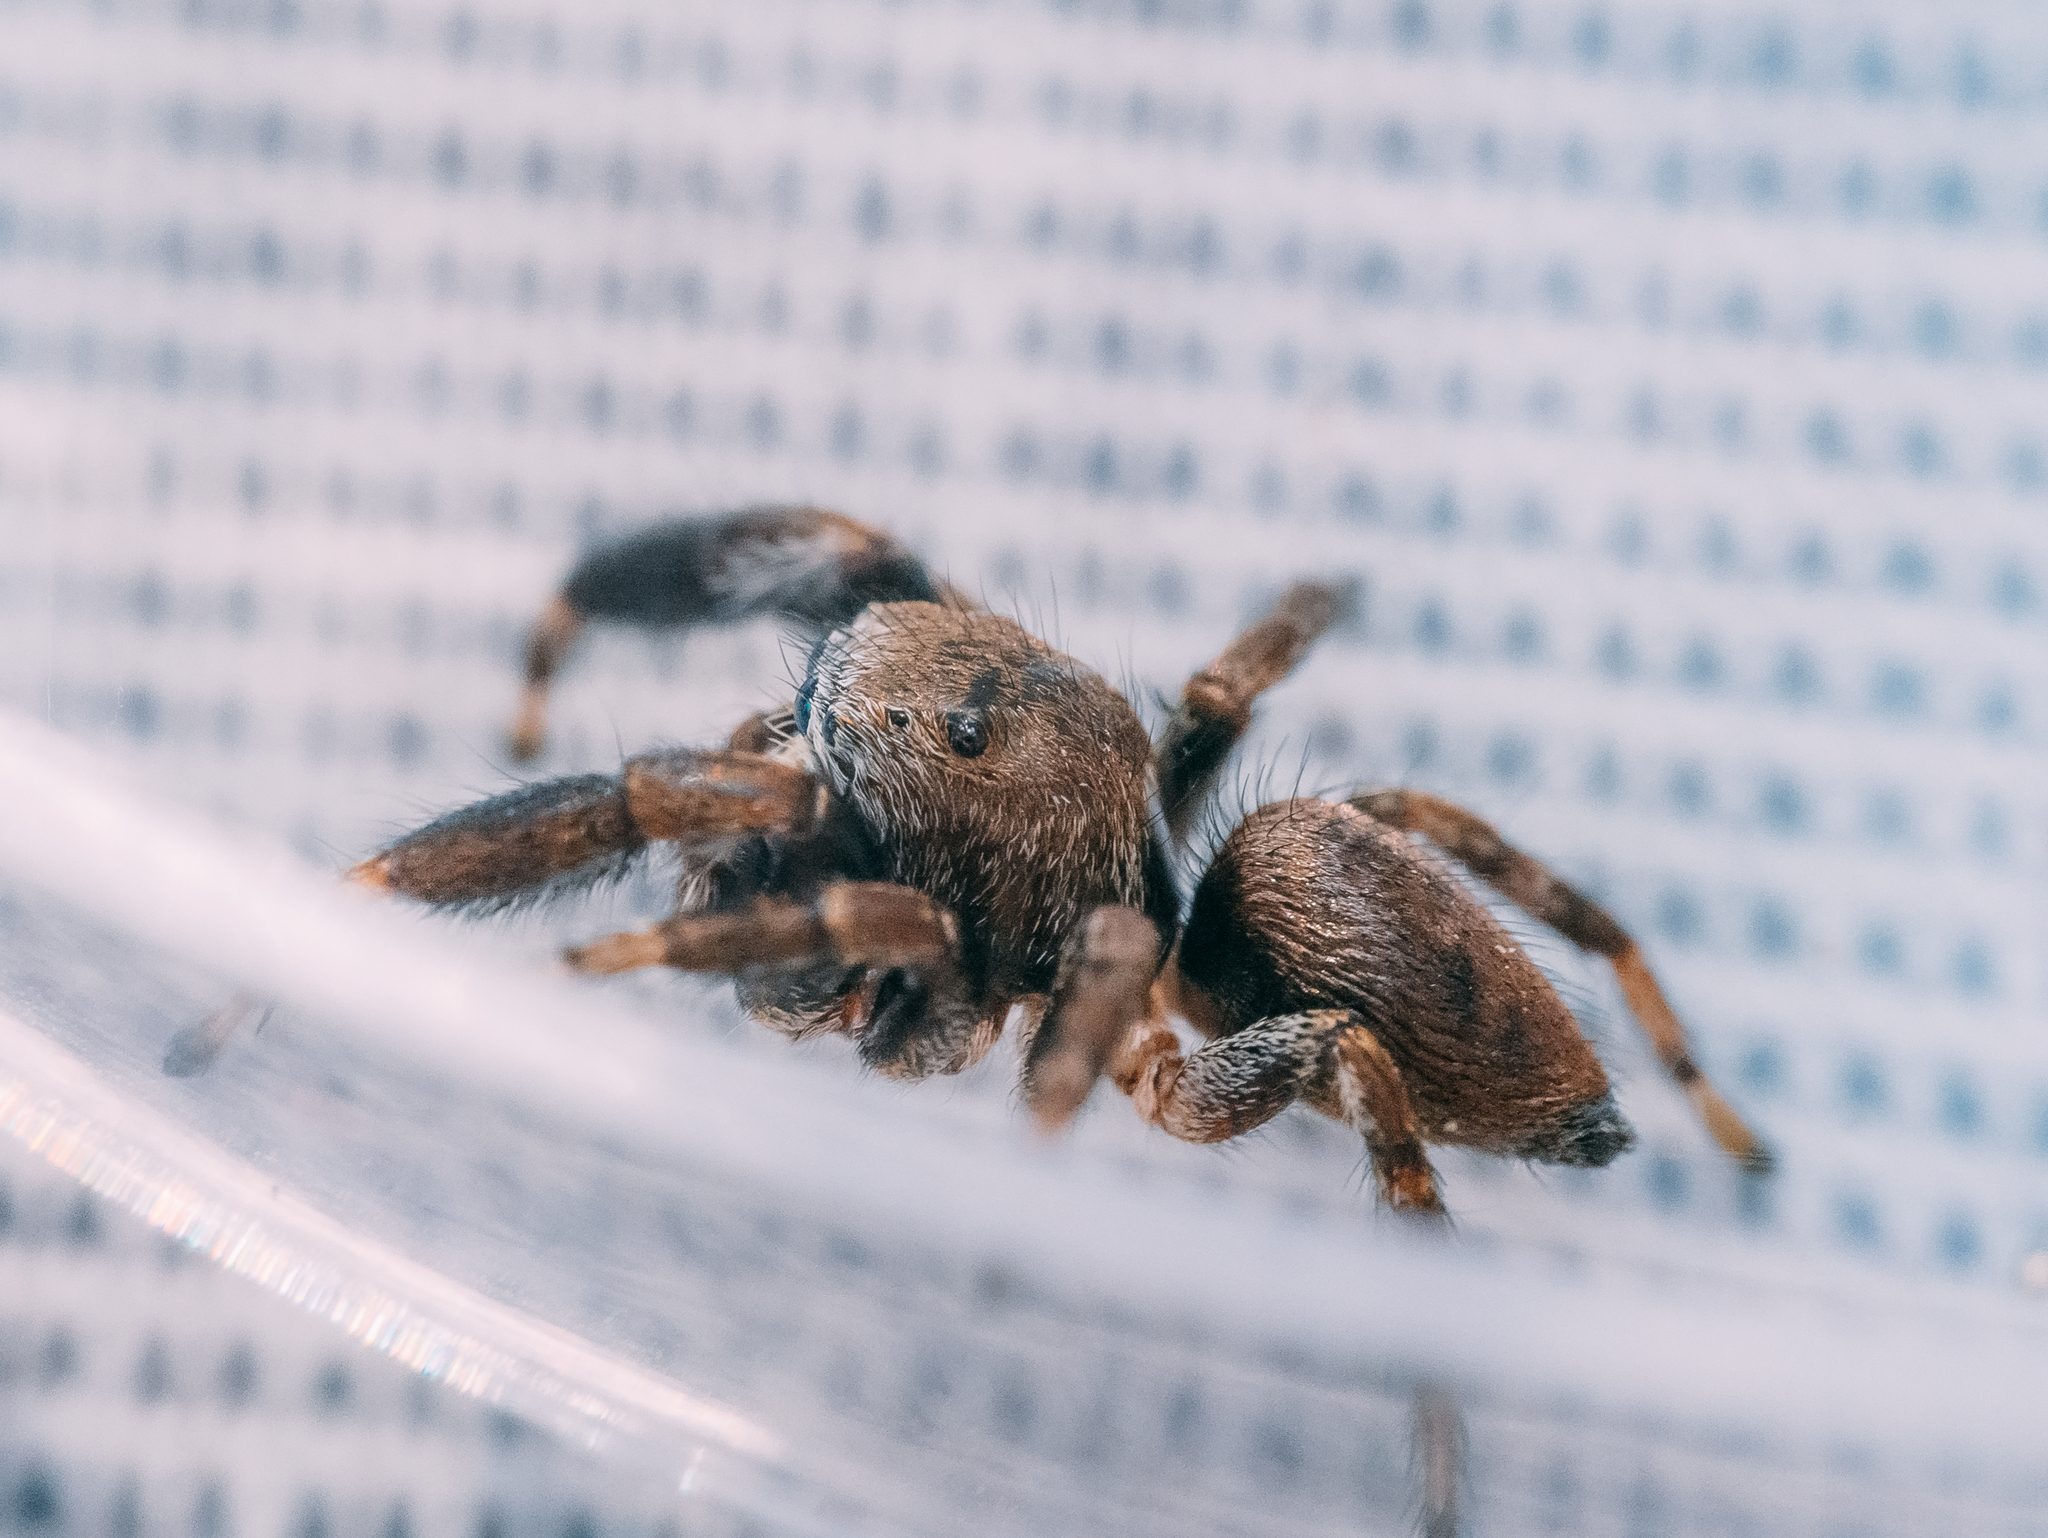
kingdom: Animalia
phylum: Arthropoda
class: Arachnida
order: Araneae
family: Salticidae
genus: Evarcha
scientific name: Evarcha arcuata
